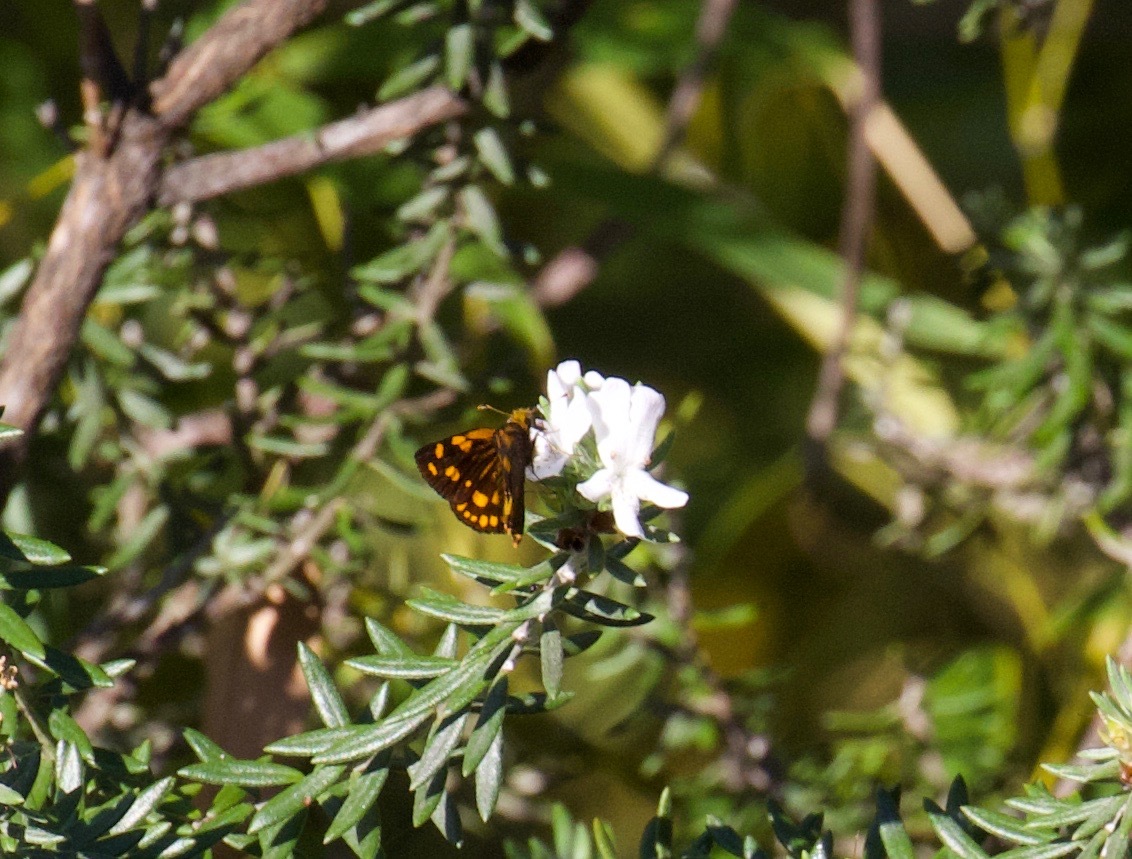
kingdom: Animalia
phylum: Arthropoda
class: Insecta
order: Lepidoptera
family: Hesperiidae
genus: Metisella
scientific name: Metisella metis
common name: Western gold-spotted sylph
